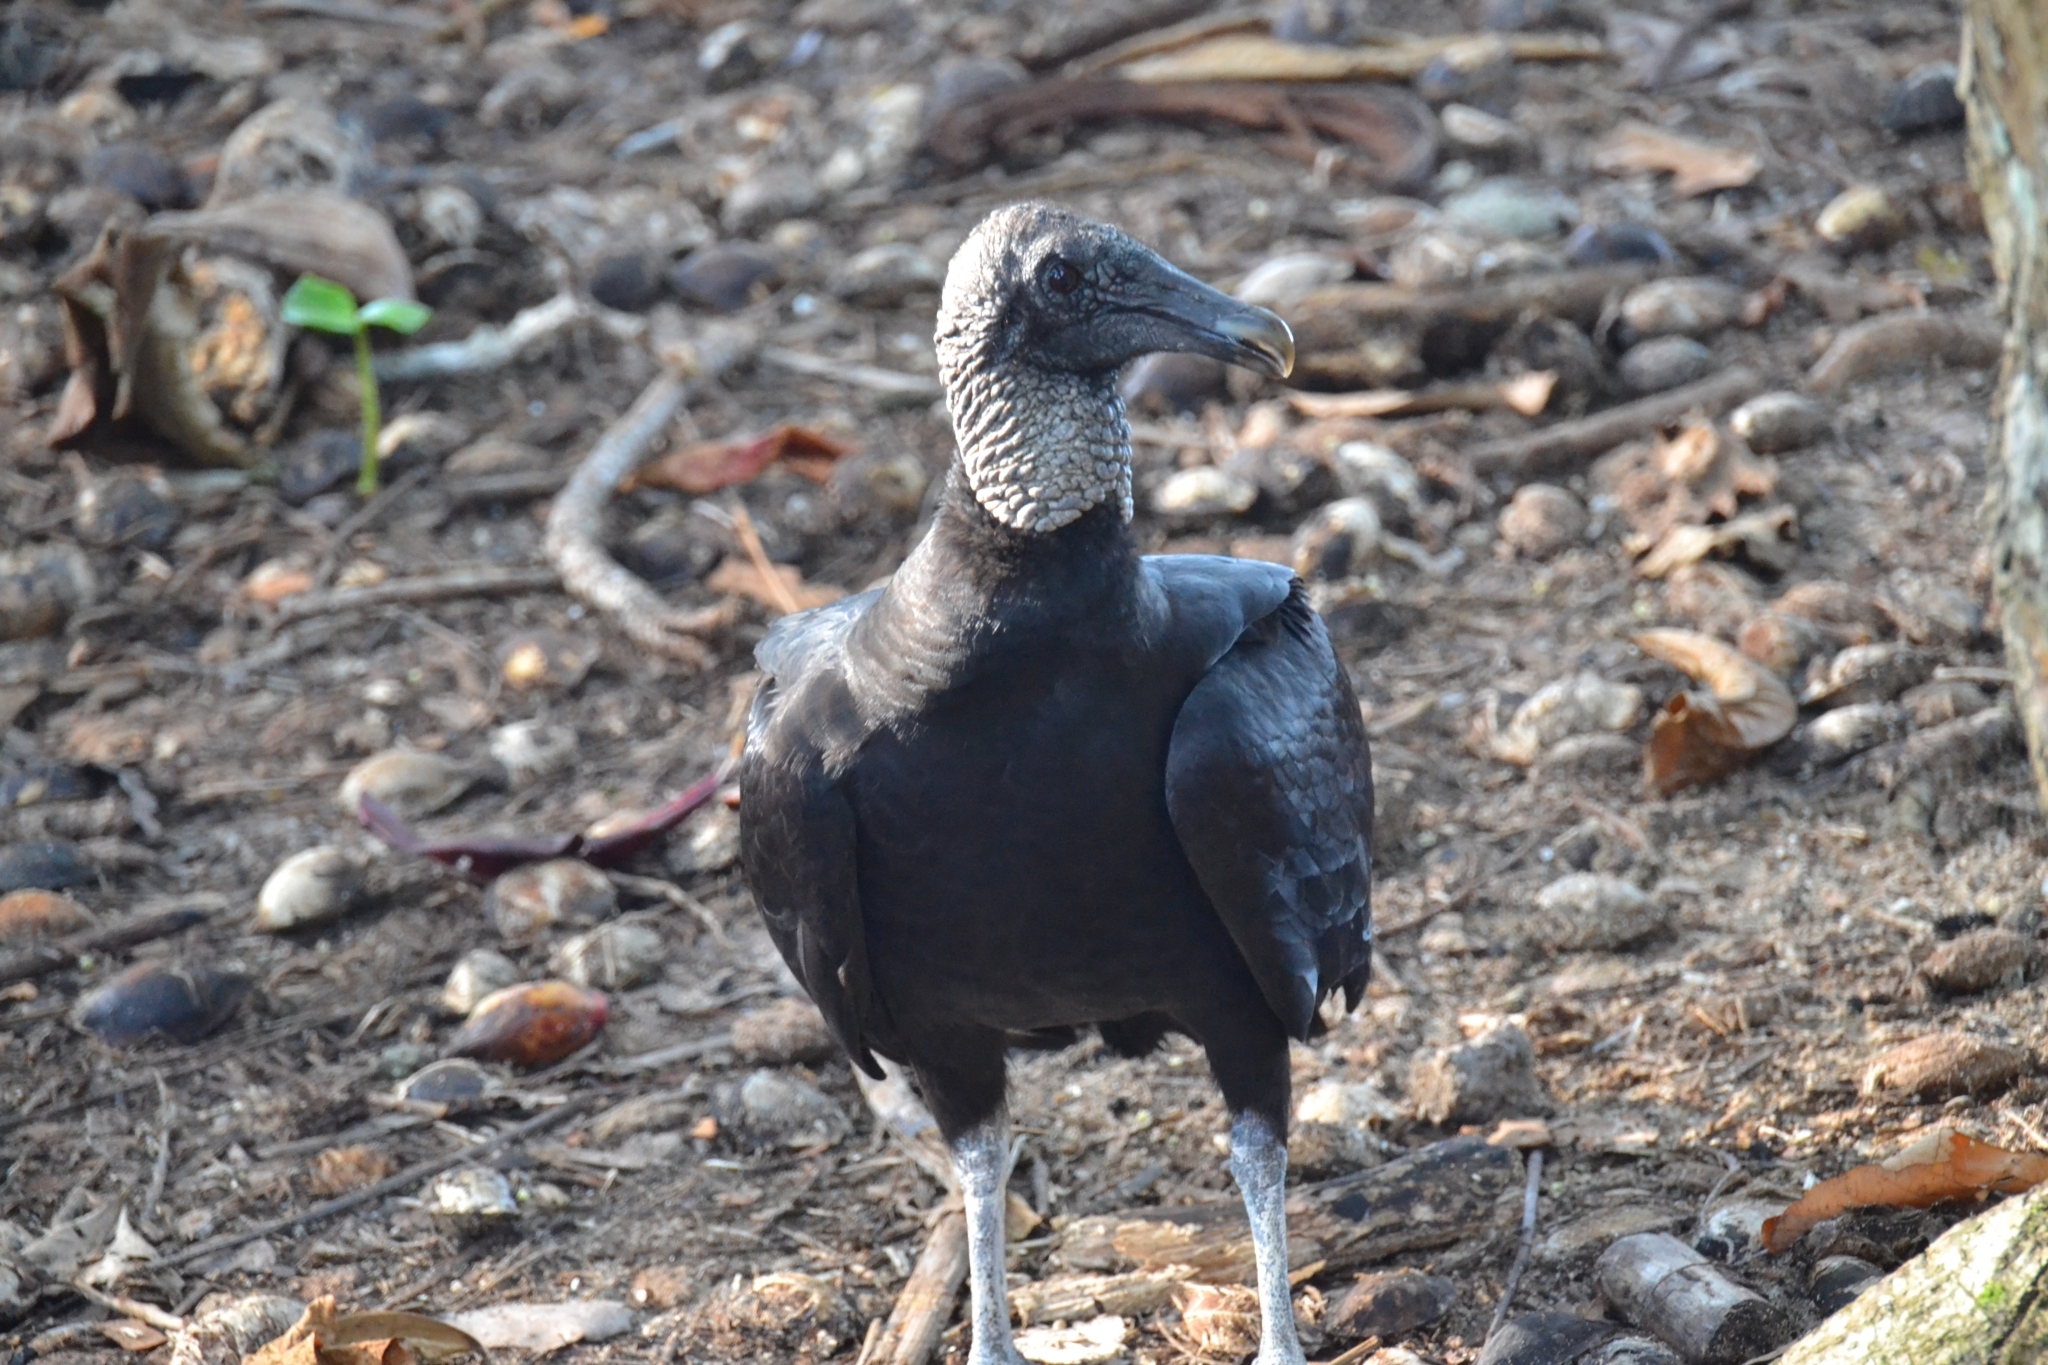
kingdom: Animalia
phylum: Chordata
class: Aves
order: Accipitriformes
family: Cathartidae
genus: Coragyps
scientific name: Coragyps atratus
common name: Black vulture
